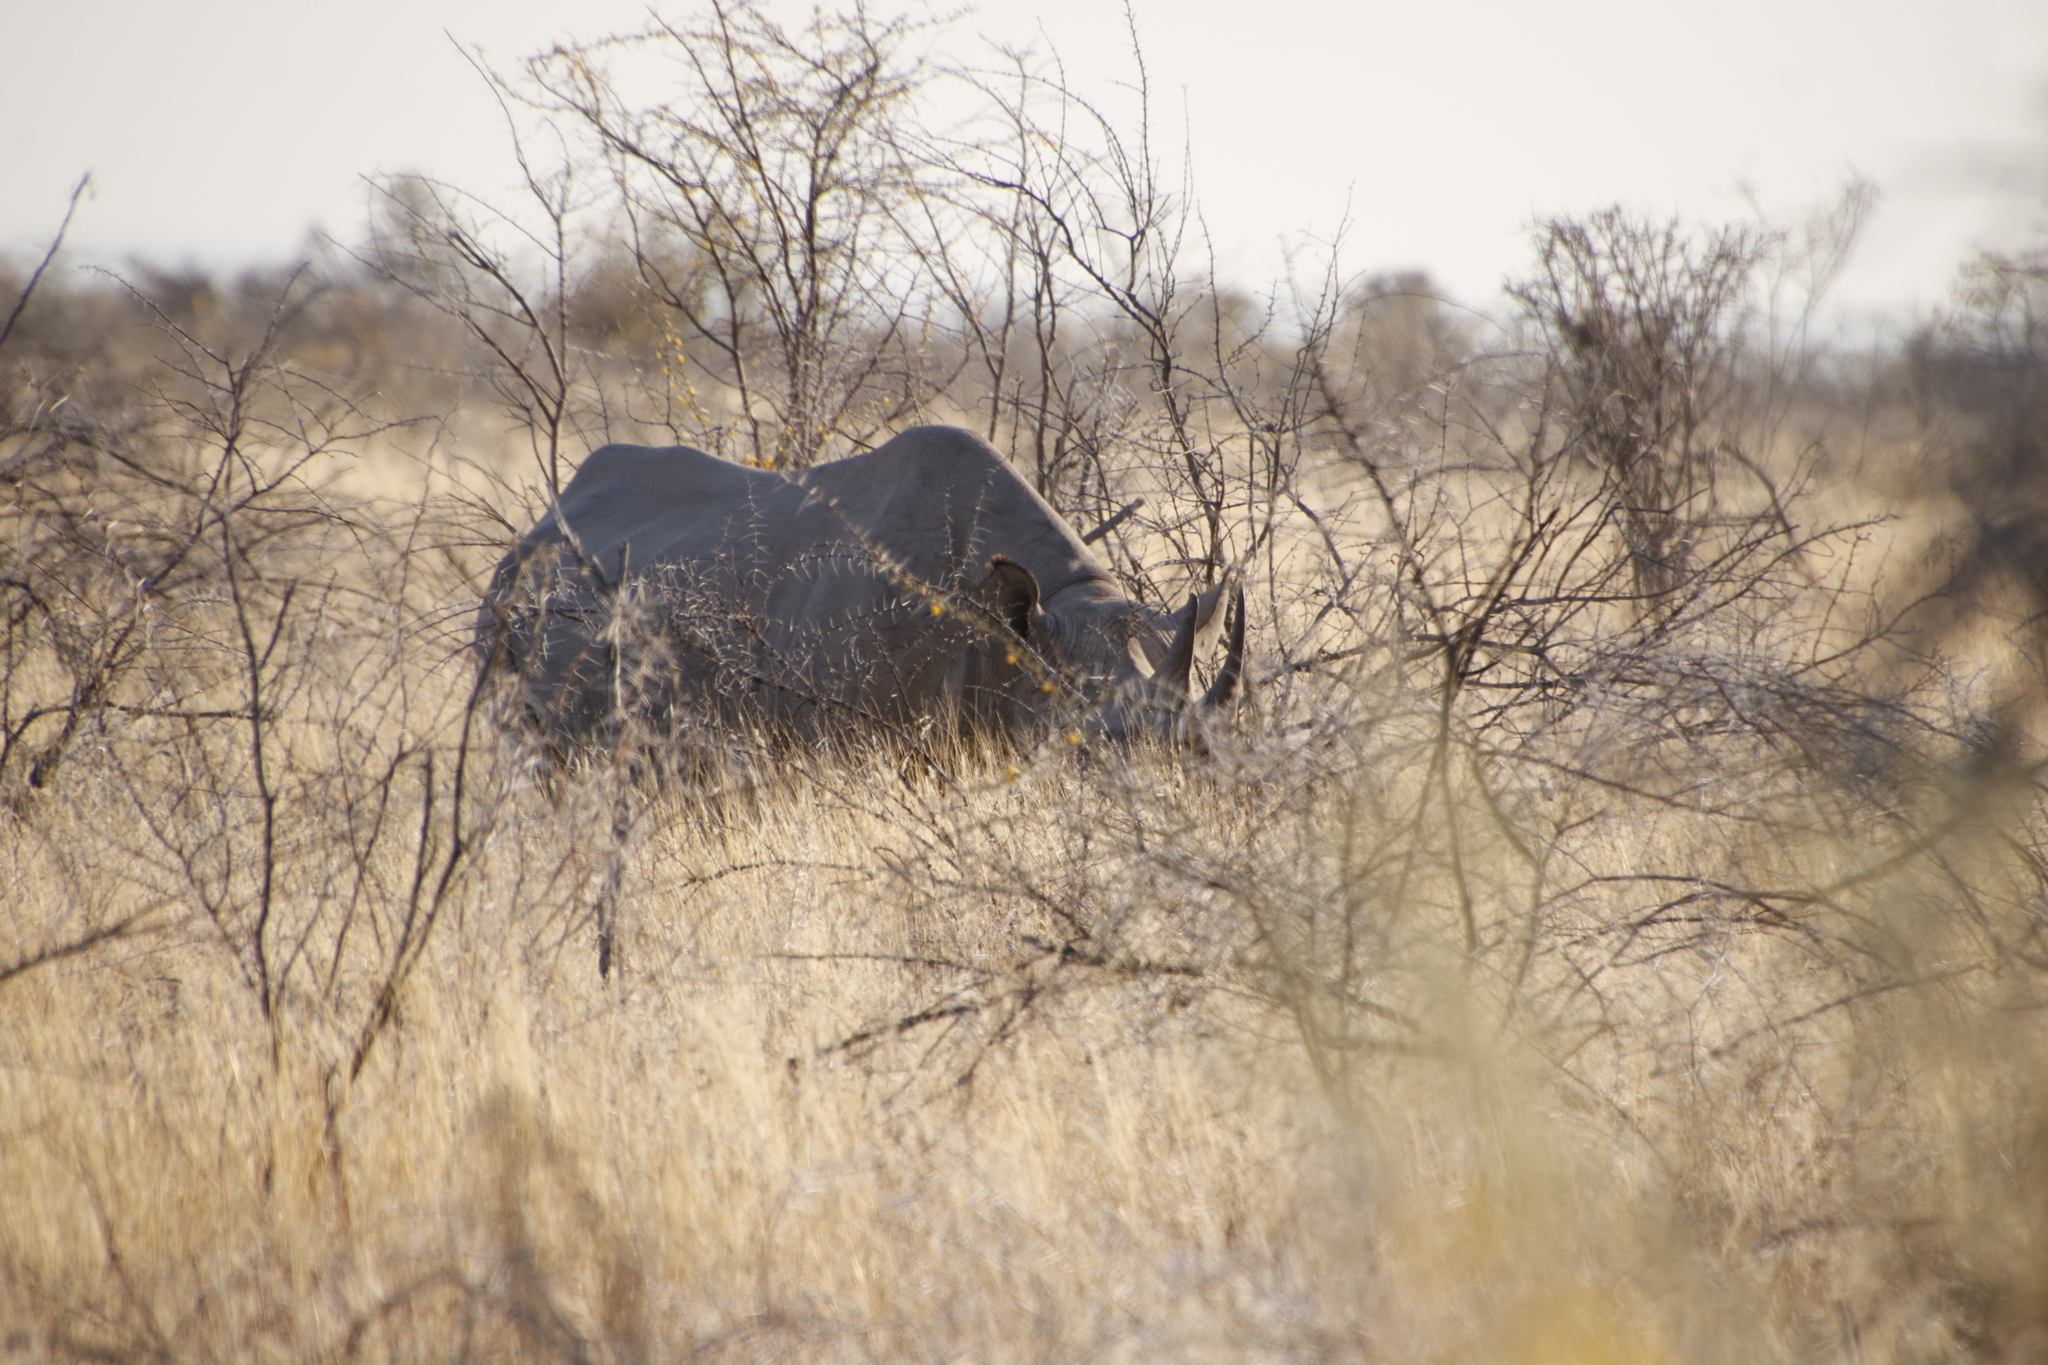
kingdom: Animalia
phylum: Chordata
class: Mammalia
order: Perissodactyla
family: Rhinocerotidae
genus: Diceros
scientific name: Diceros bicornis
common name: Black rhinoceros
